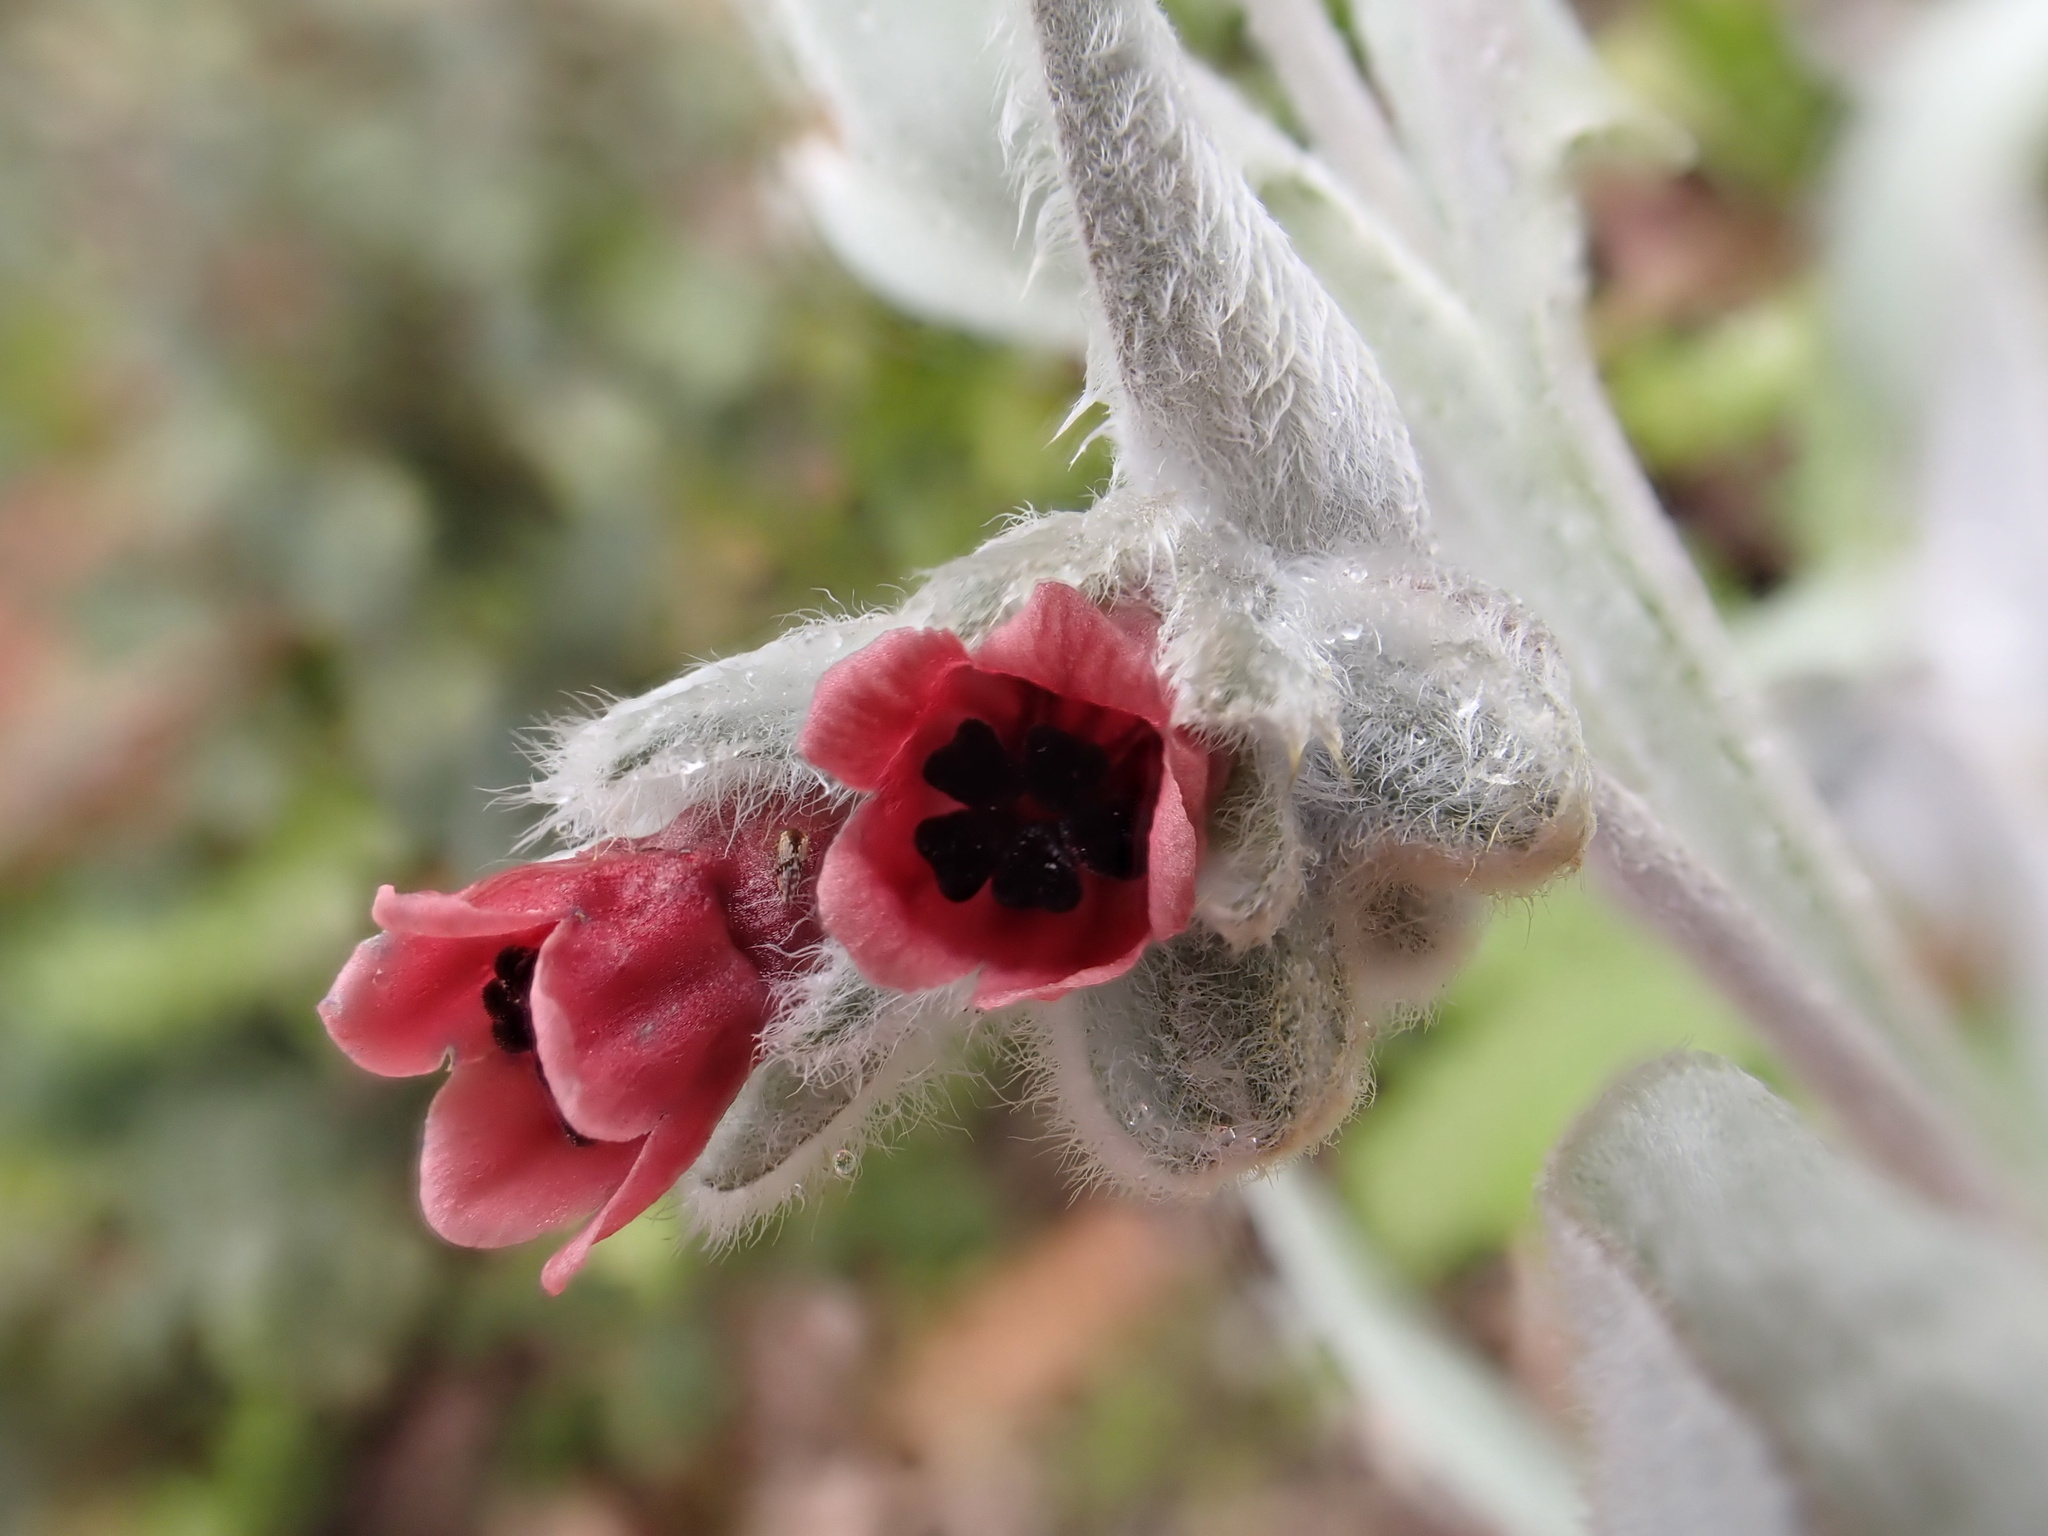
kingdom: Plantae
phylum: Tracheophyta
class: Magnoliopsida
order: Boraginales
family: Boraginaceae
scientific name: Boraginaceae
